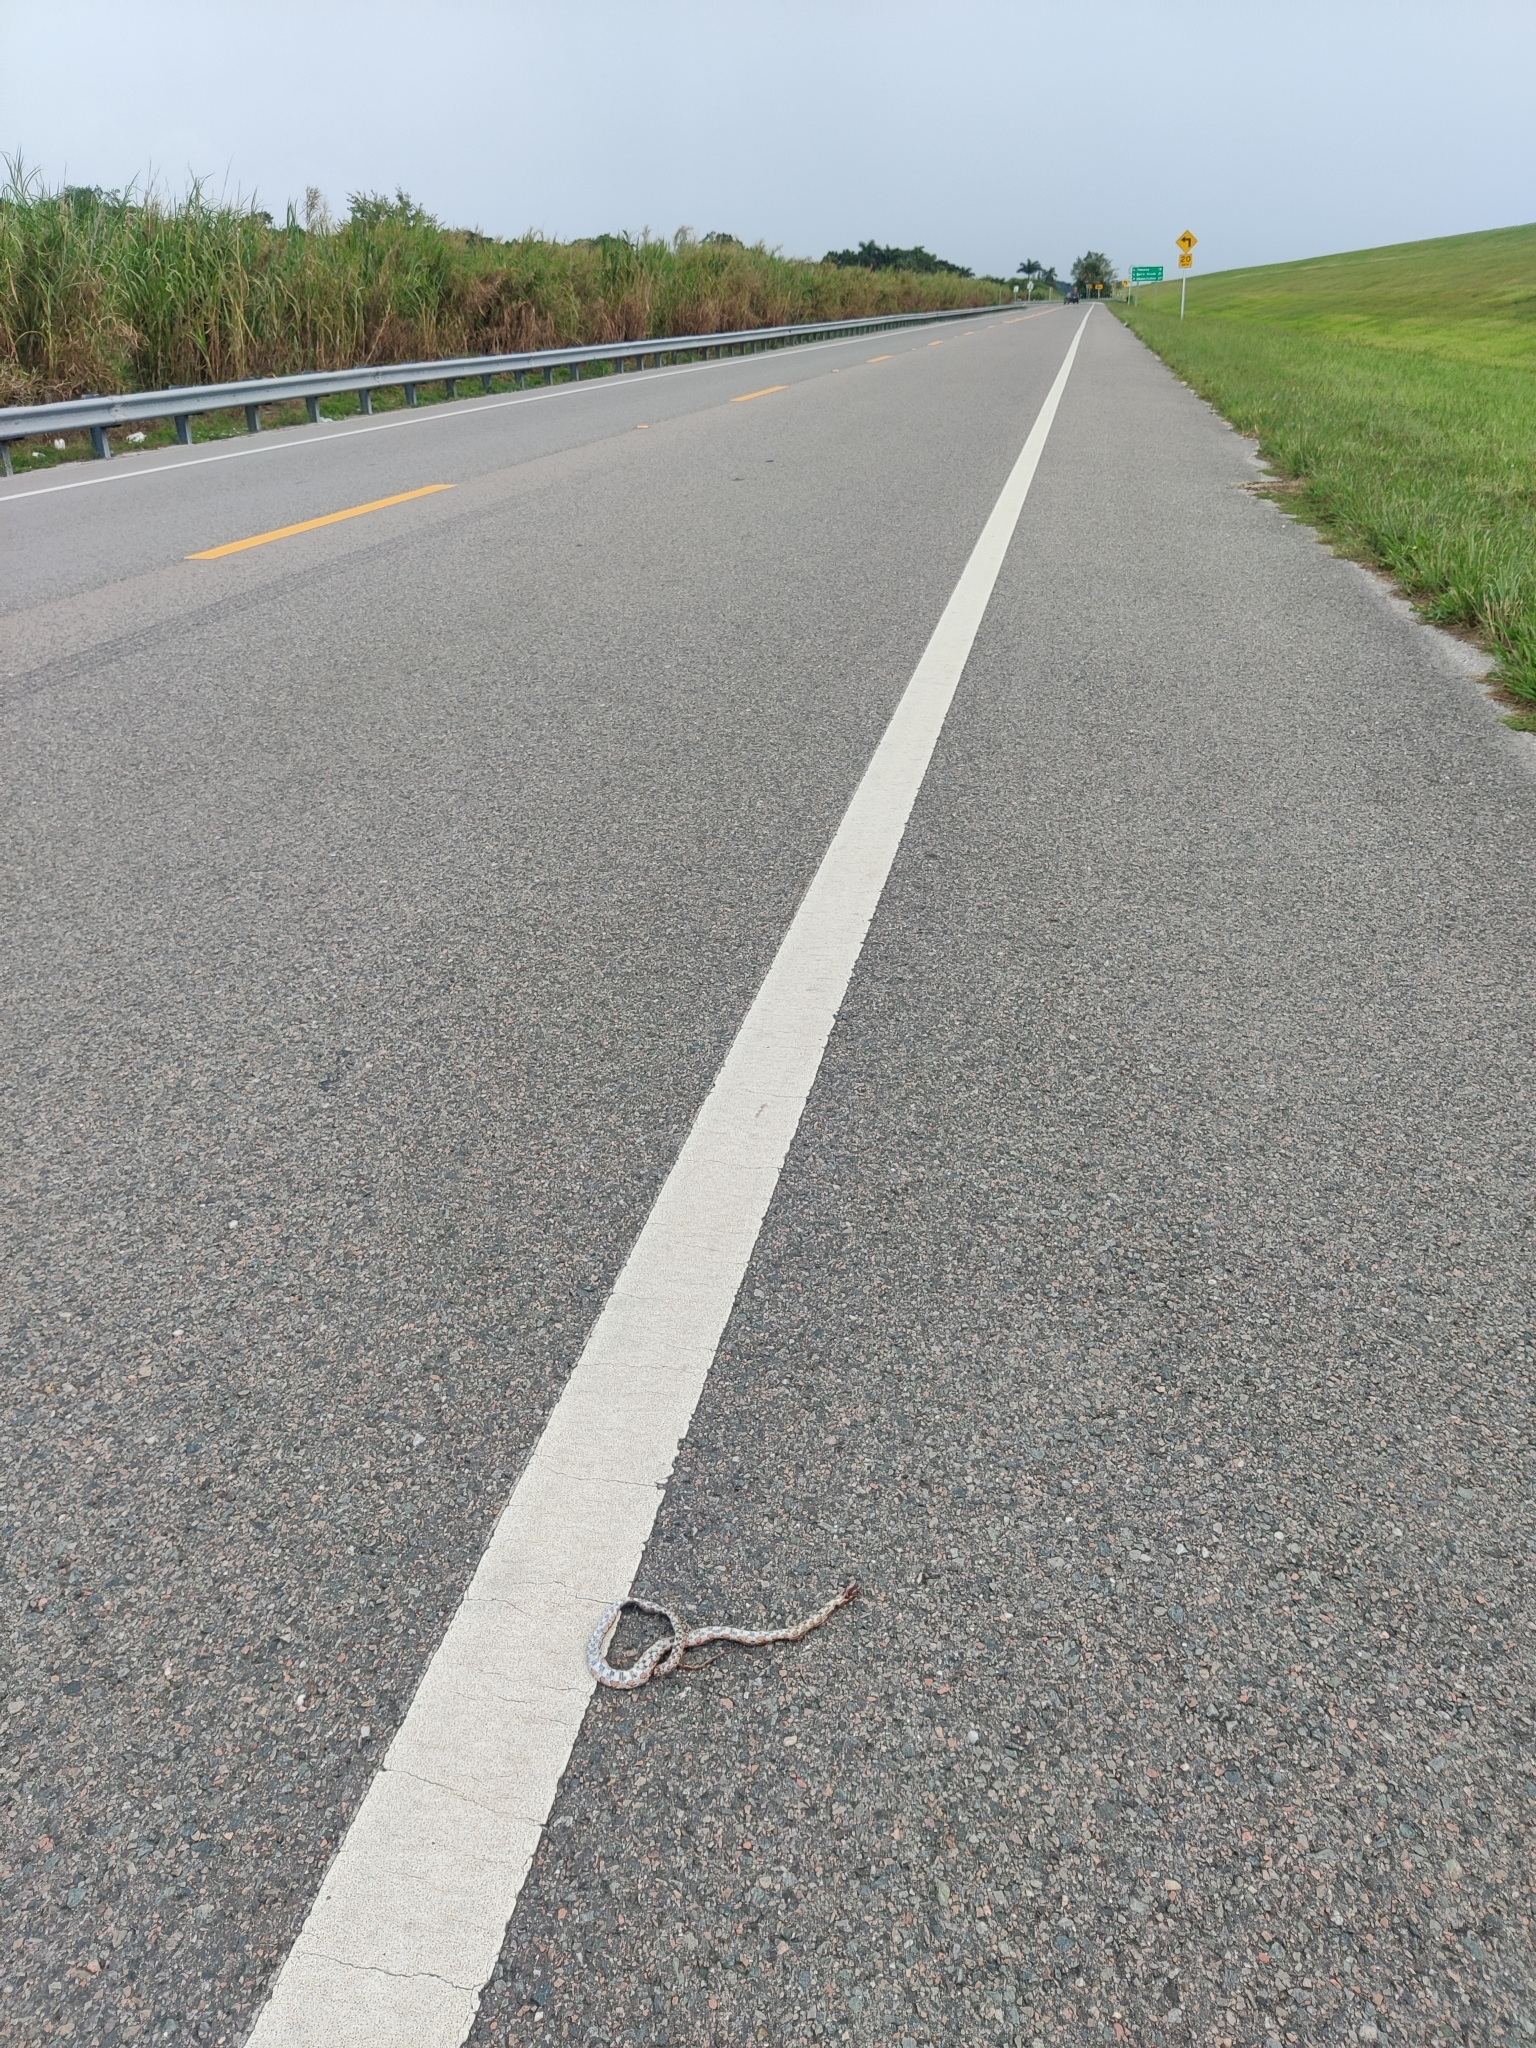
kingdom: Animalia
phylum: Chordata
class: Squamata
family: Colubridae
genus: Pantherophis
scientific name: Pantherophis guttatus
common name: Red cornsnake
